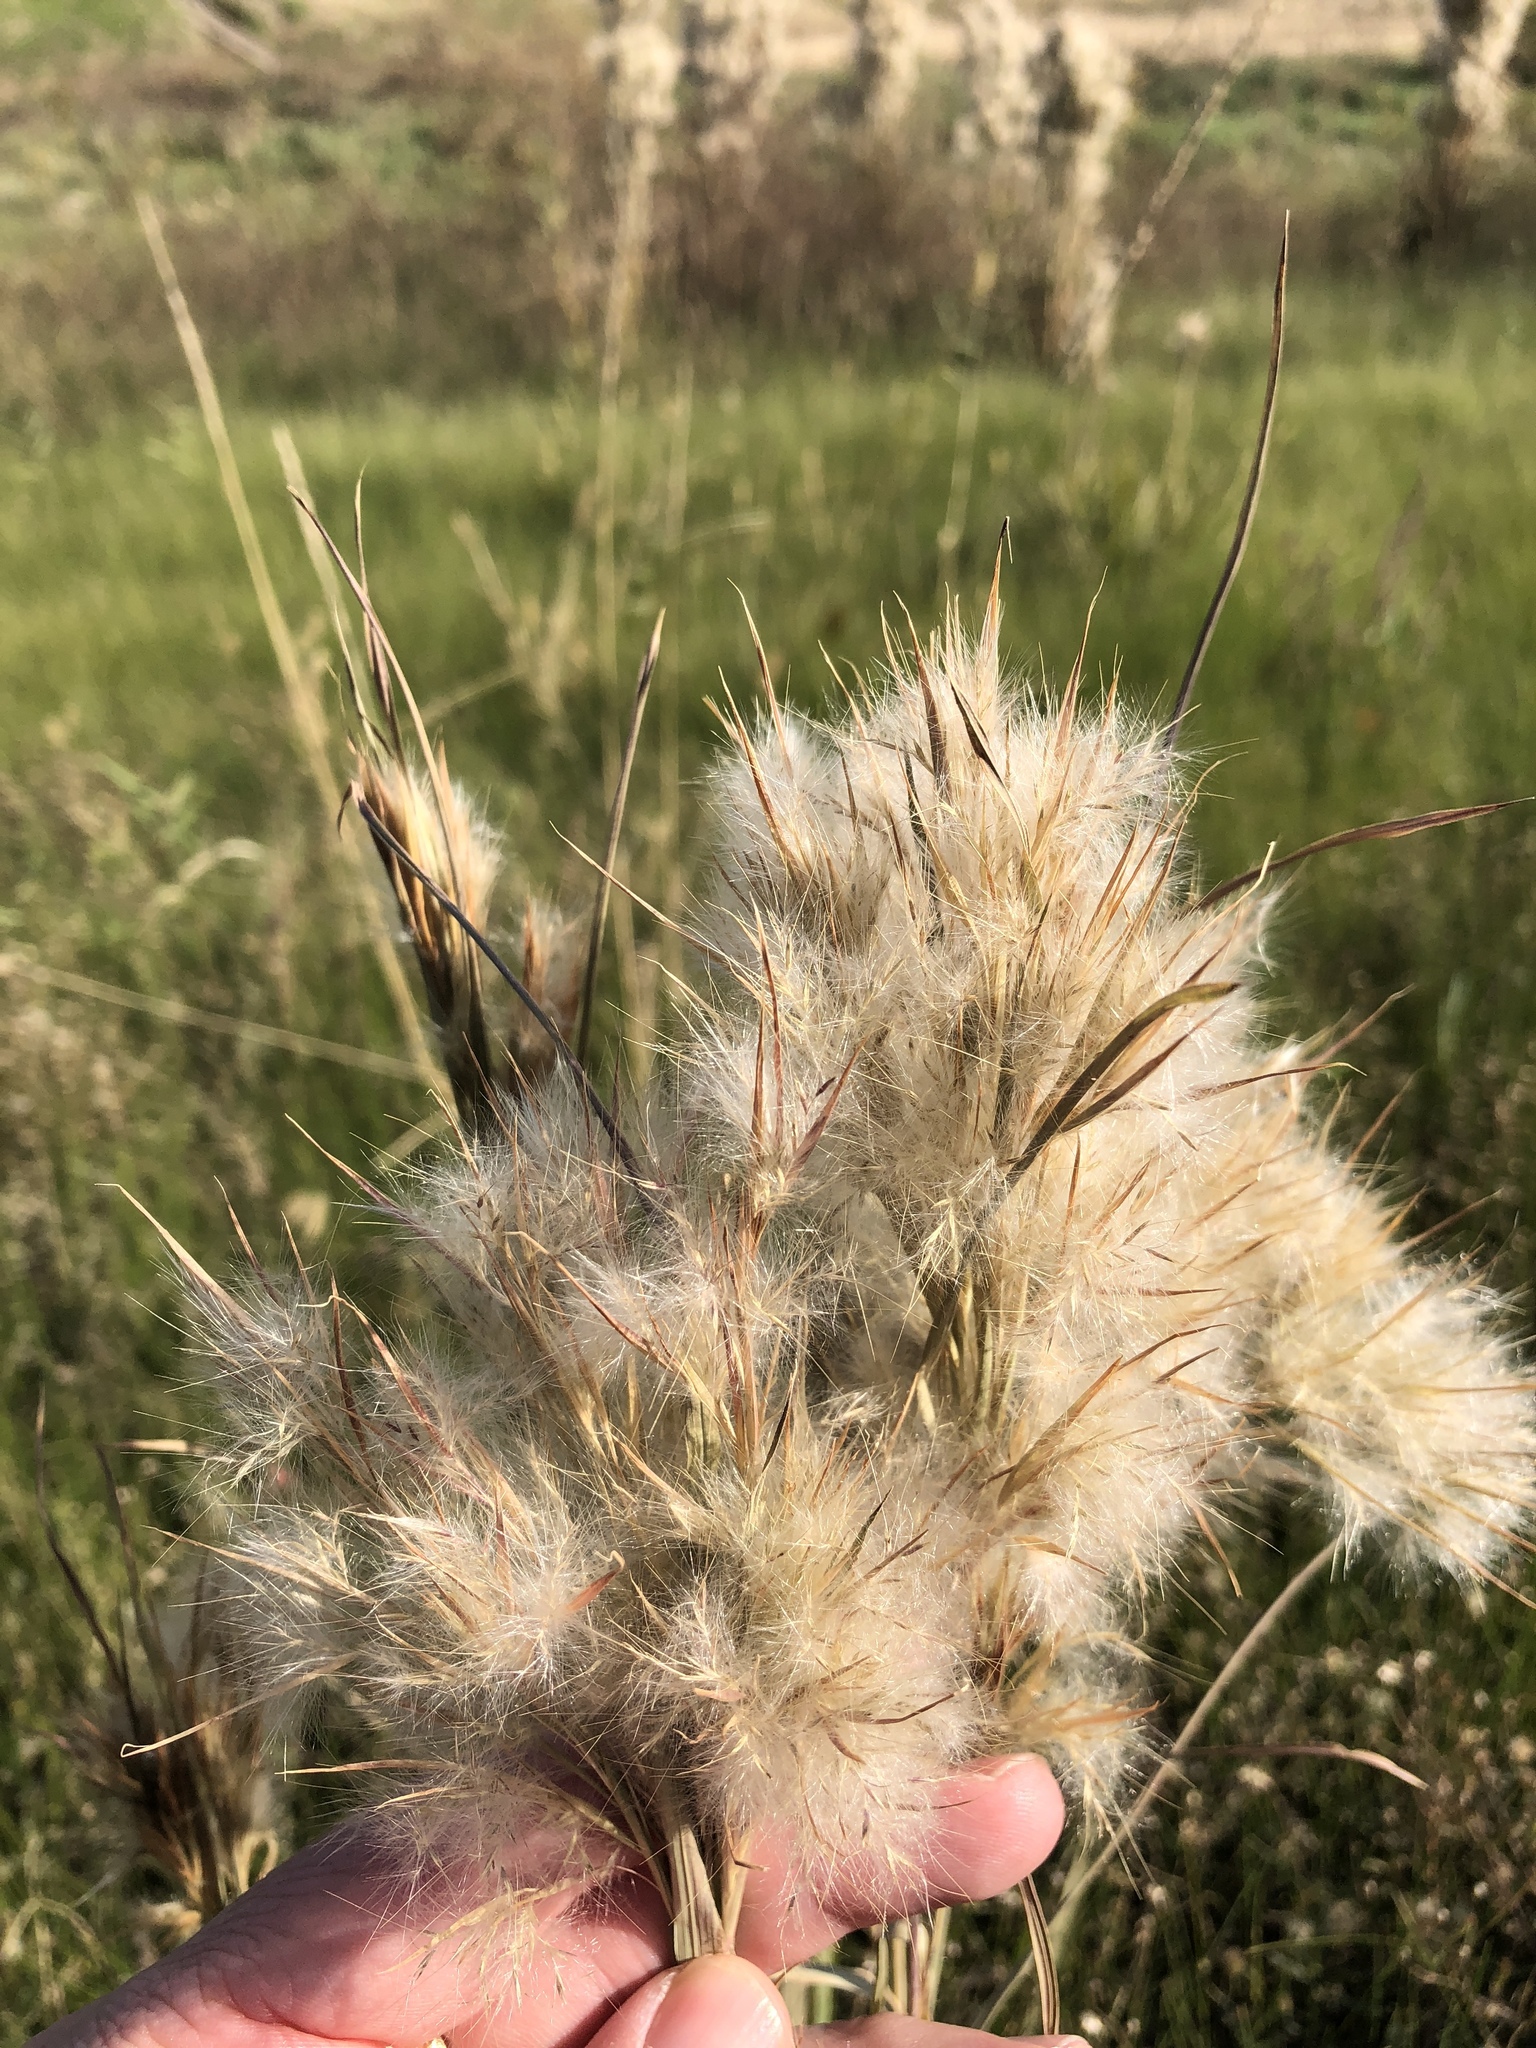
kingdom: Plantae
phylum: Tracheophyta
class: Liliopsida
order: Poales
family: Poaceae
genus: Andropogon
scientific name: Andropogon tenuispatheus
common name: Bushy bluestem
